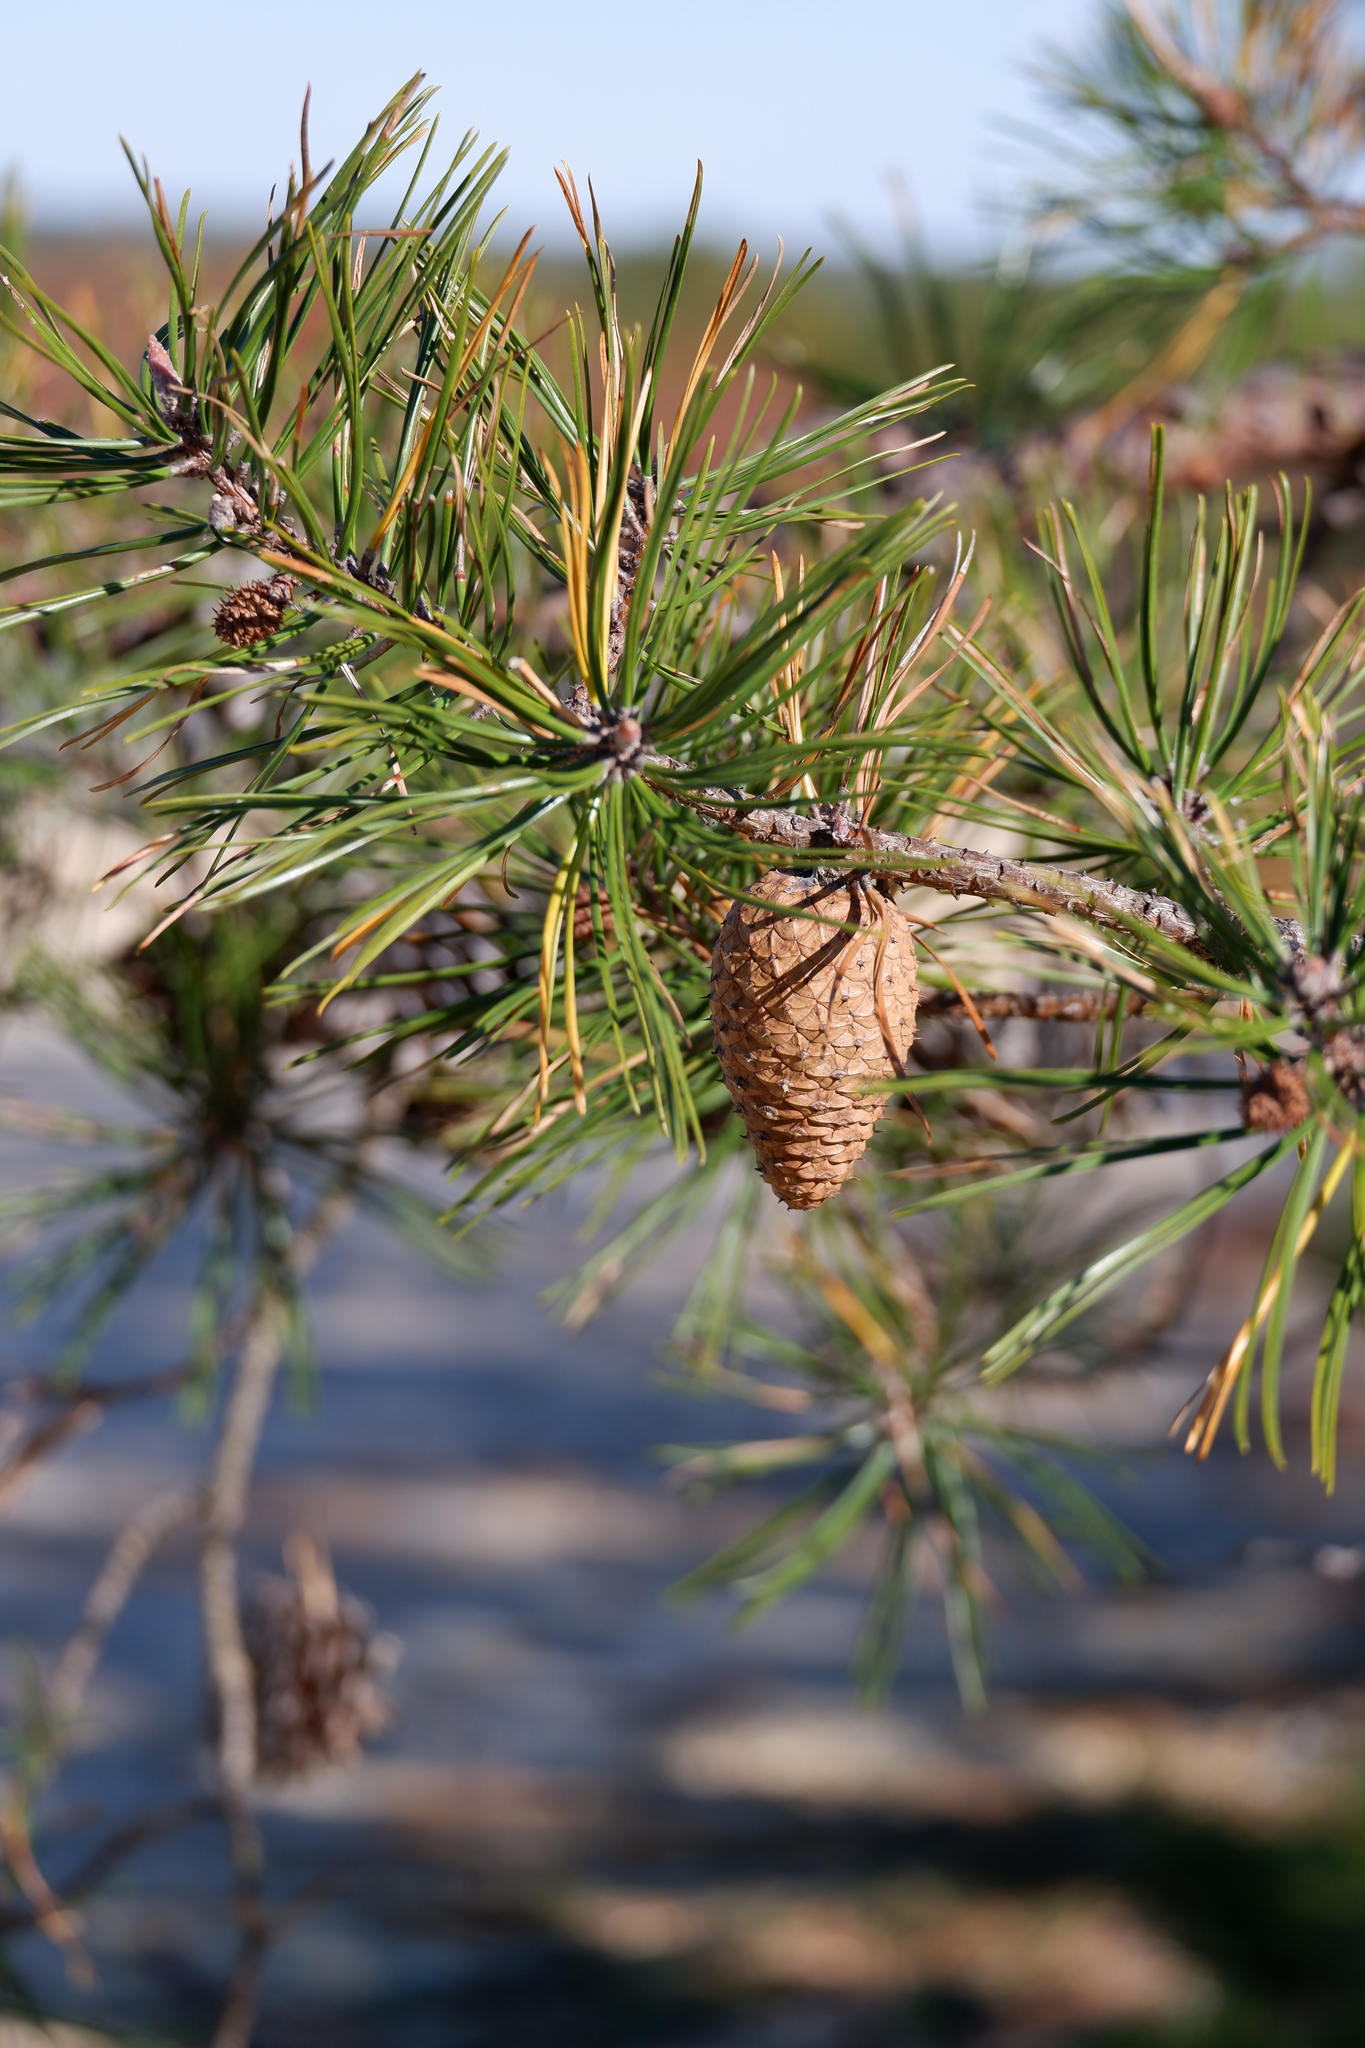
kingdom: Plantae
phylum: Tracheophyta
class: Pinopsida
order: Pinales
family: Pinaceae
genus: Pinus
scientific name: Pinus rigida
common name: Pitch pine
